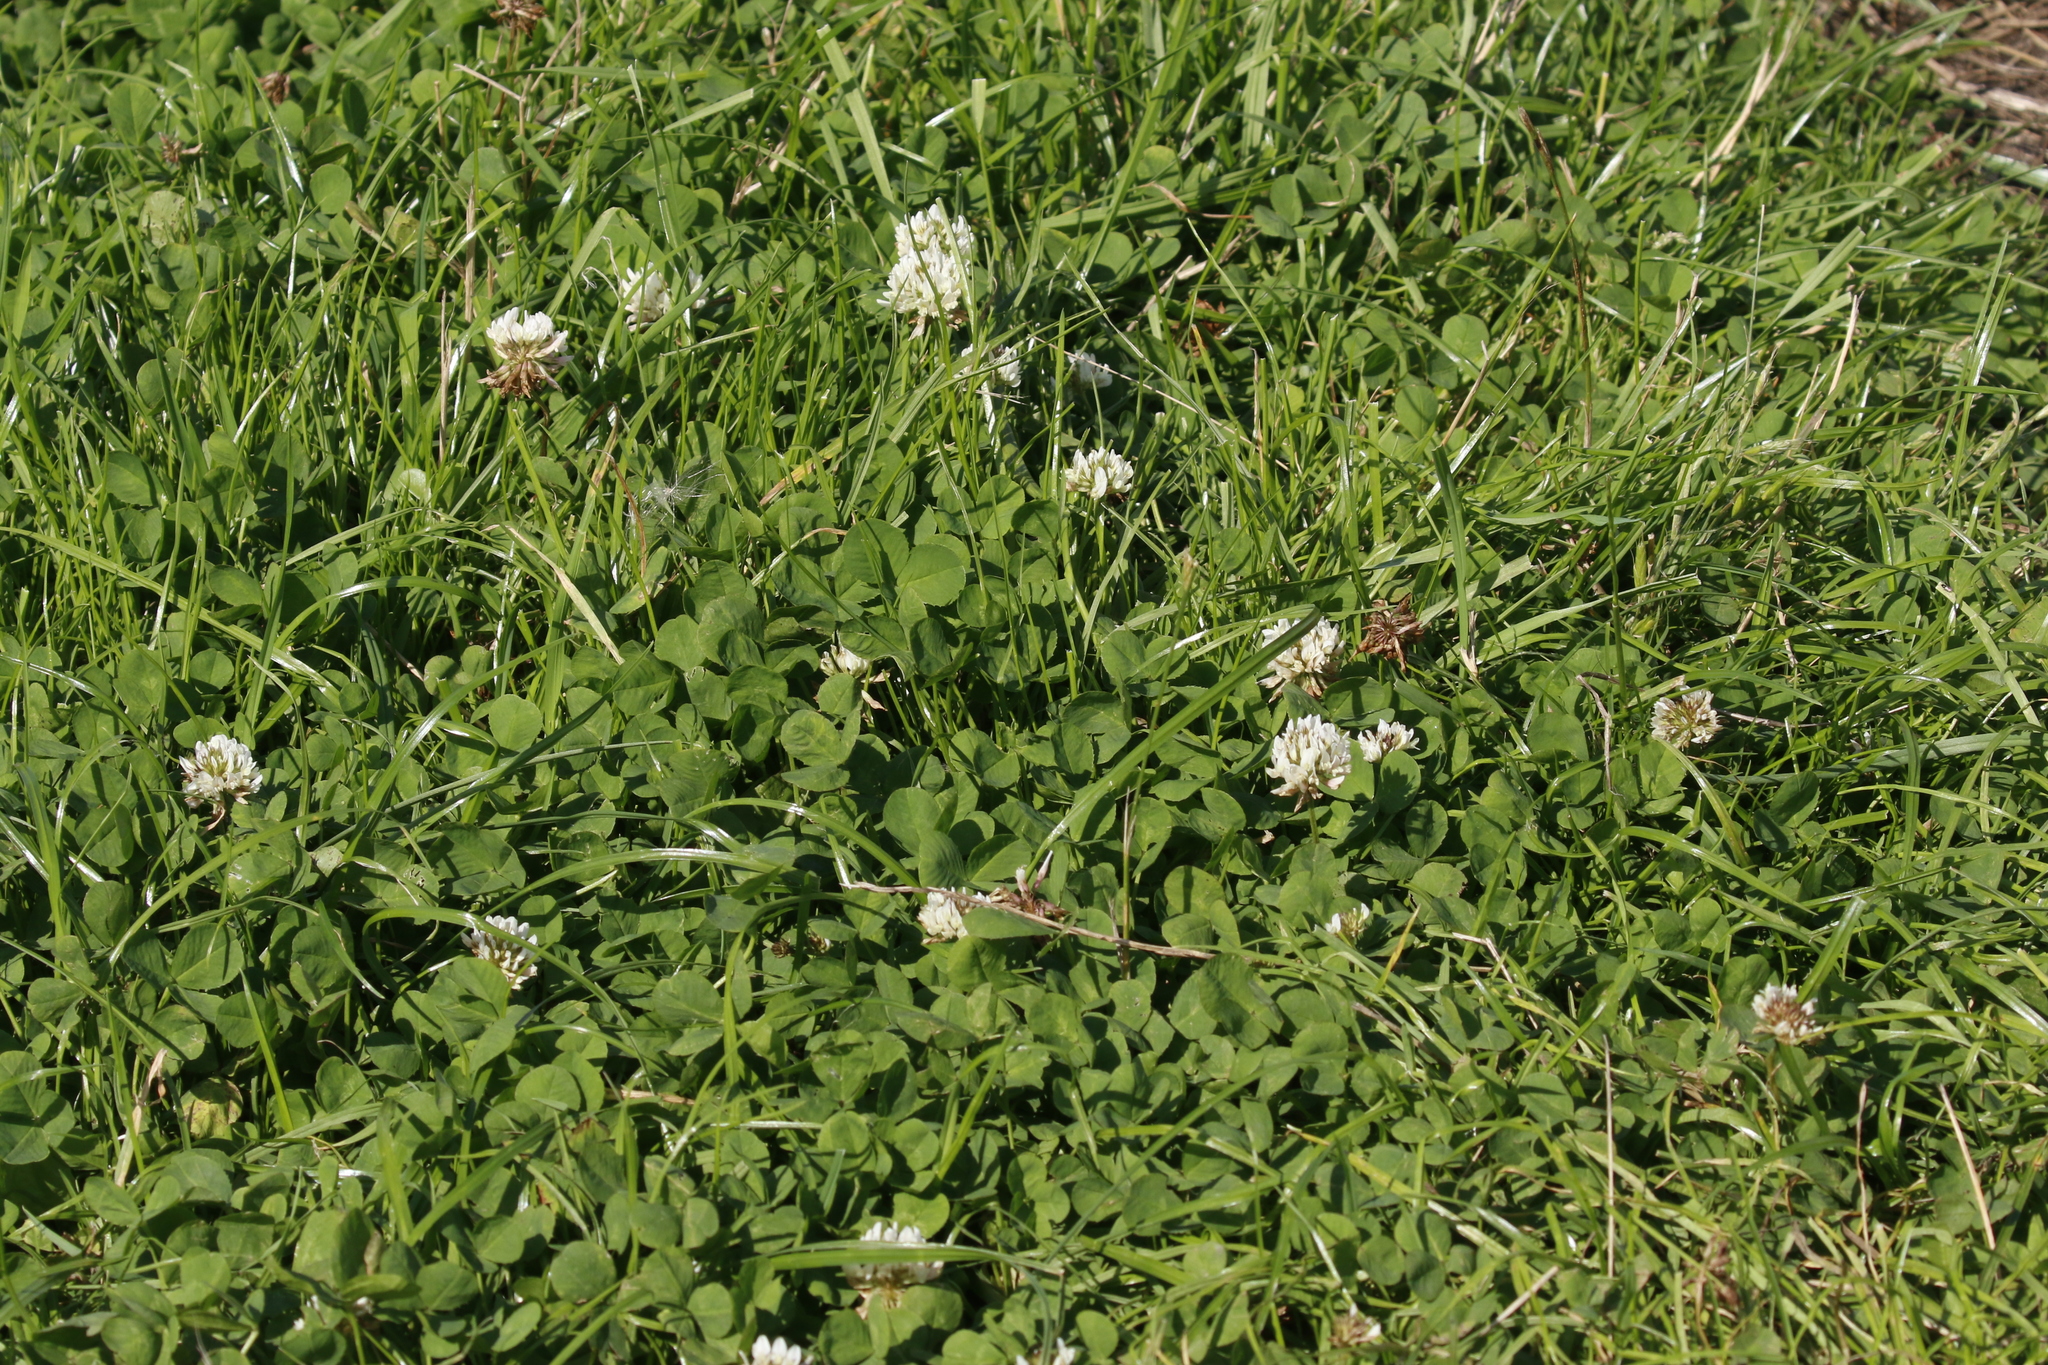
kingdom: Plantae
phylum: Tracheophyta
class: Magnoliopsida
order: Fabales
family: Fabaceae
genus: Trifolium
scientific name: Trifolium repens
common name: White clover
